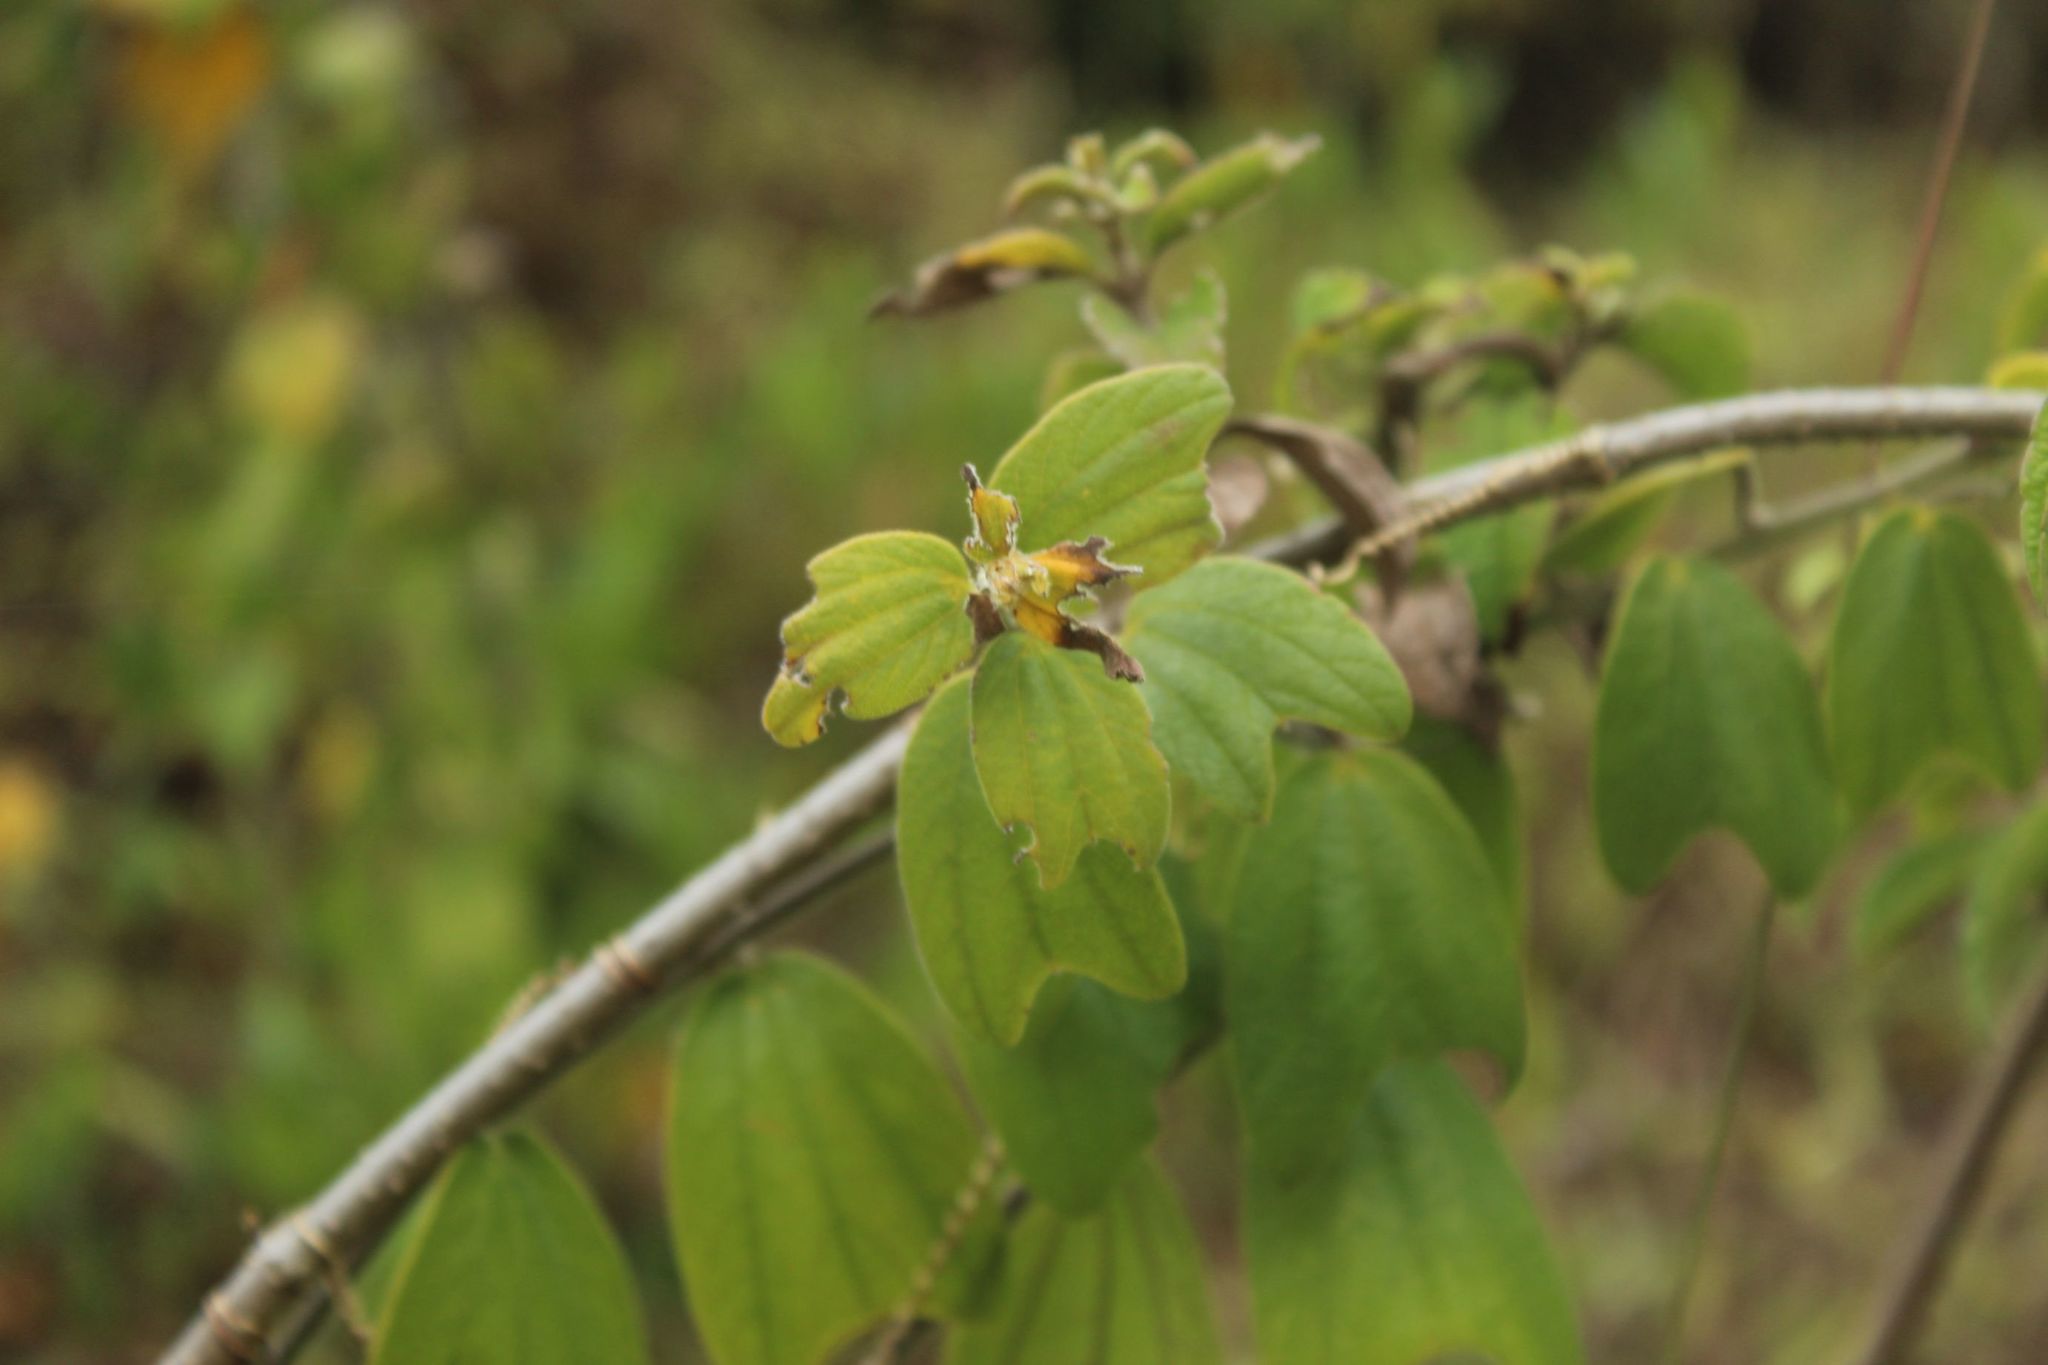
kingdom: Plantae
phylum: Tracheophyta
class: Magnoliopsida
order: Malpighiales
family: Passifloraceae
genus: Passiflora
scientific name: Passiflora bogotensis
